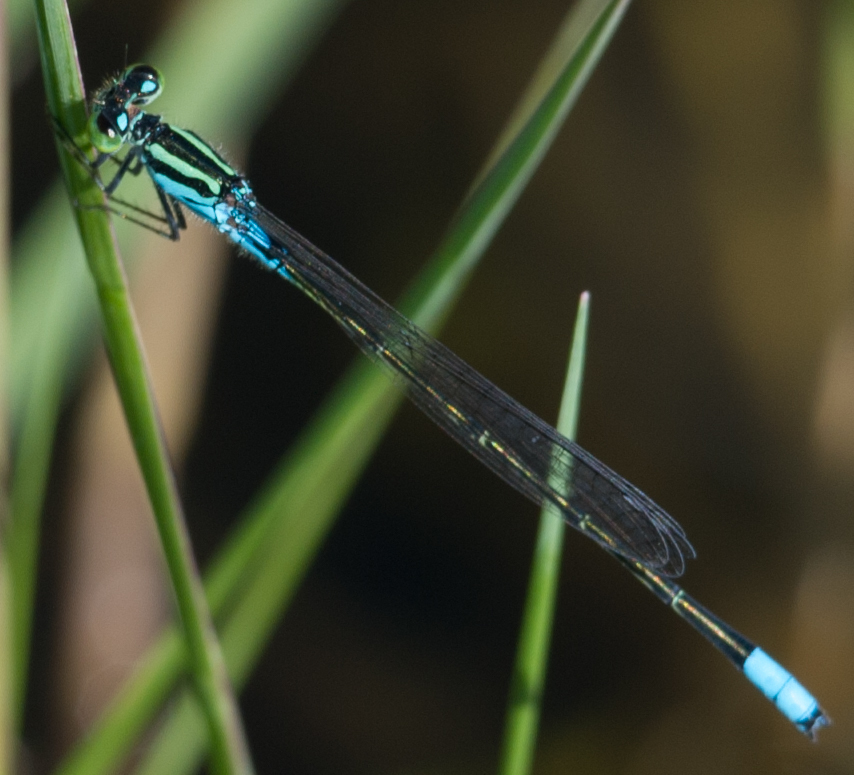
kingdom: Animalia
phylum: Arthropoda
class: Insecta
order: Odonata
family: Coenagrionidae
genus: Pseudagrion
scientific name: Pseudagrion coeleste
